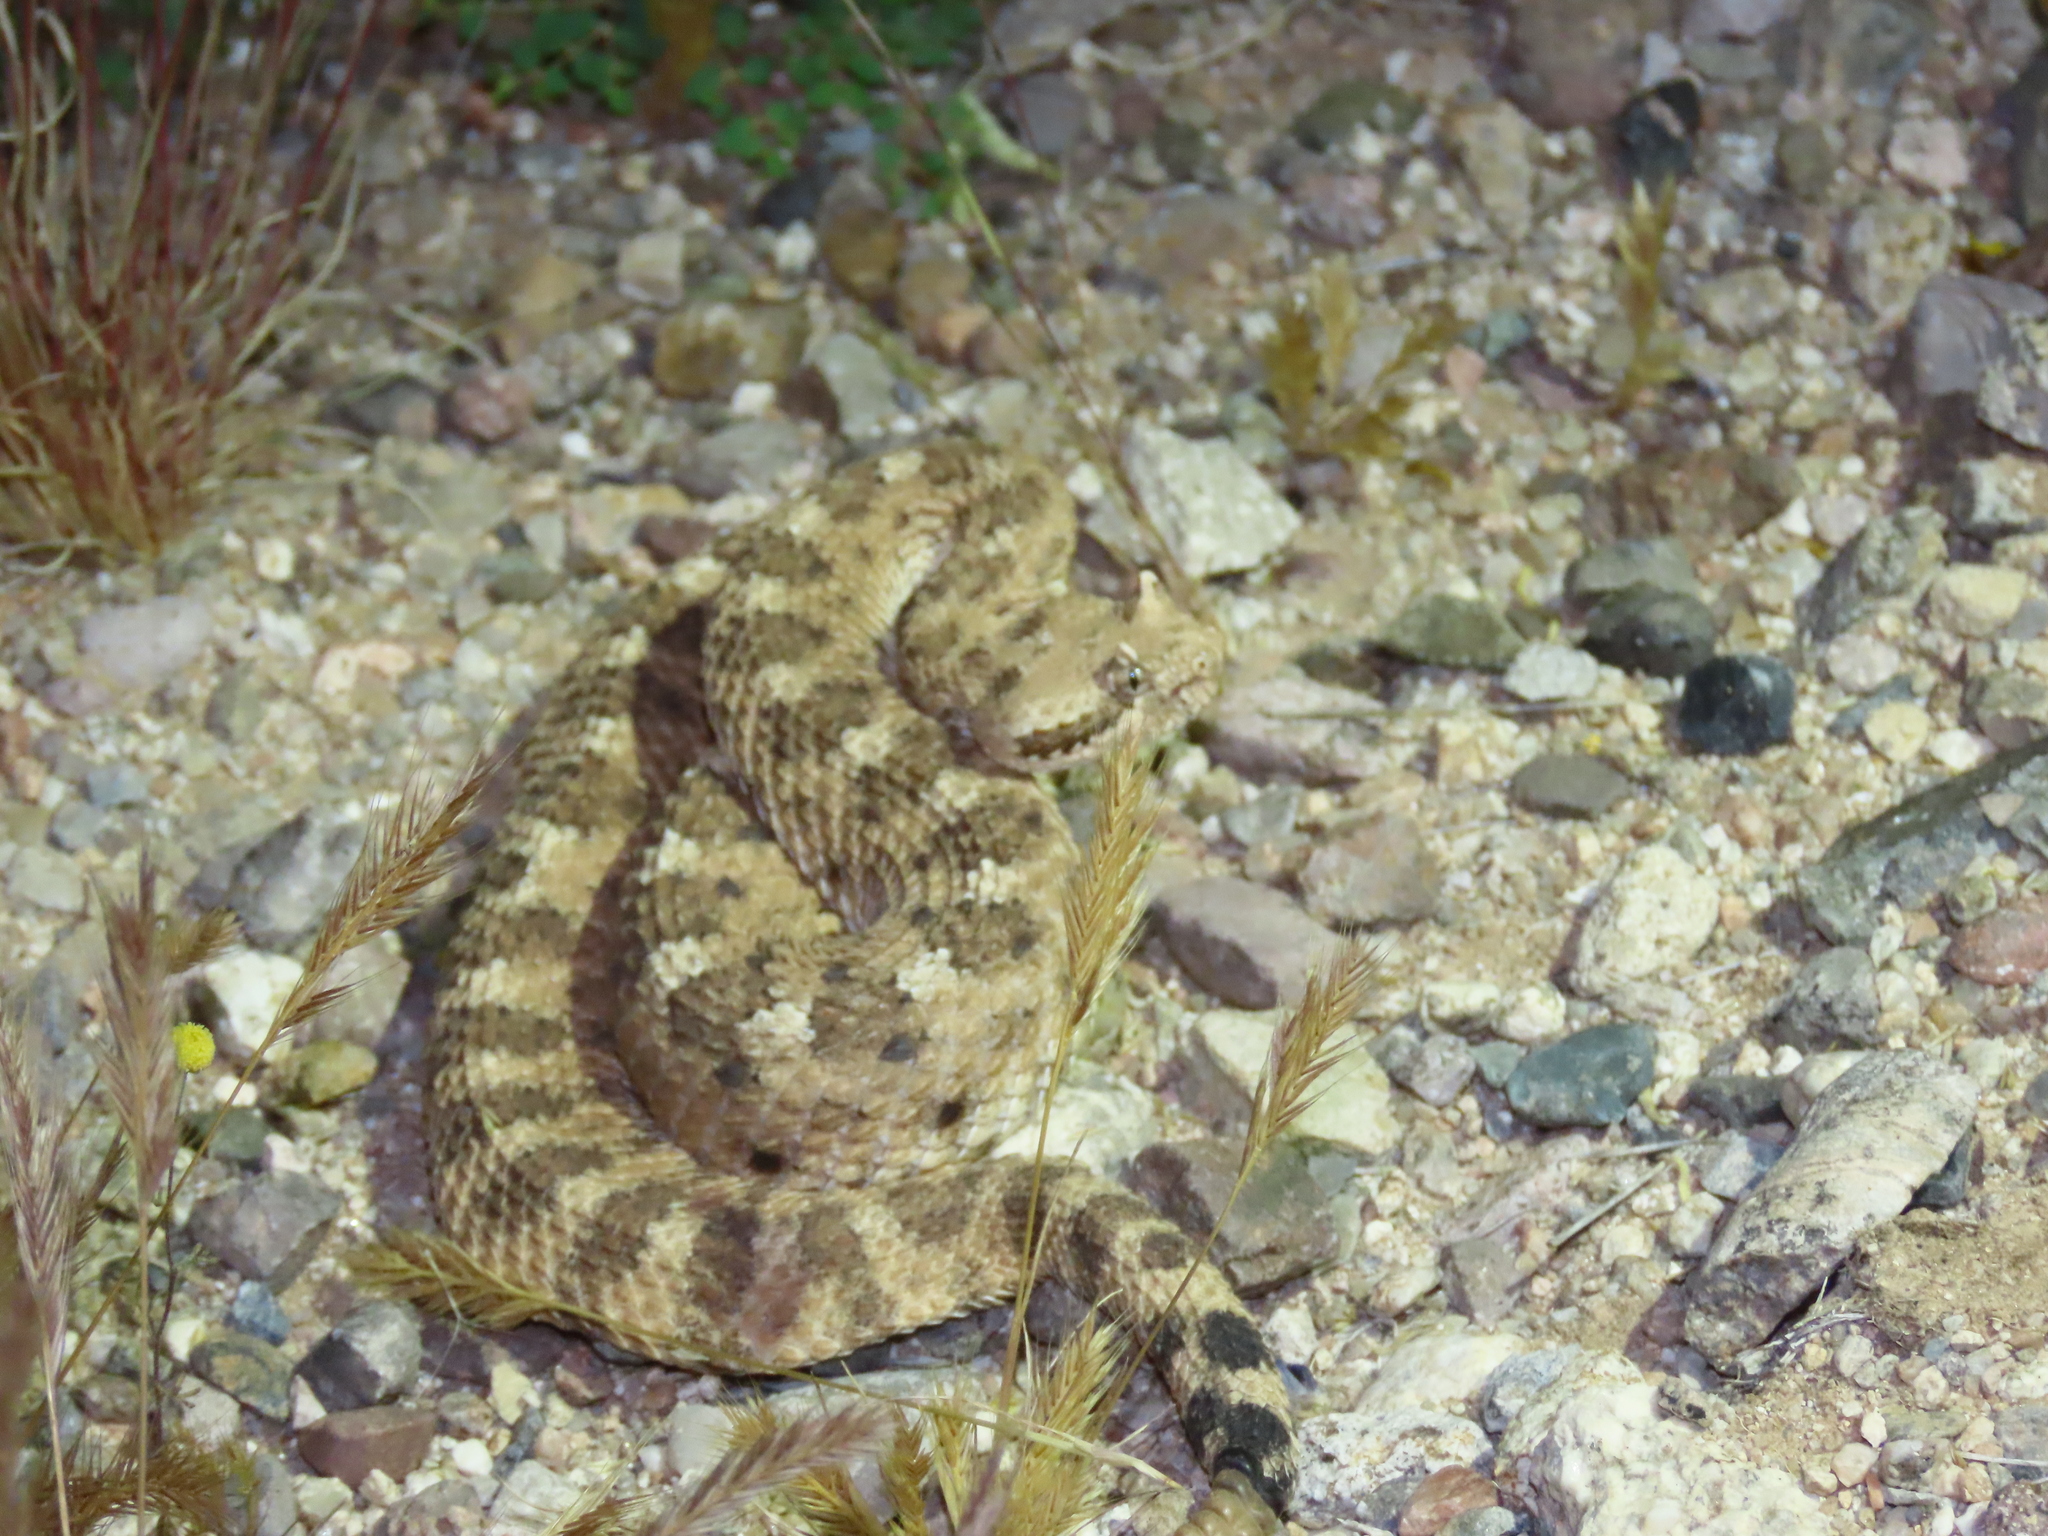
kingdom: Animalia
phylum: Chordata
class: Squamata
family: Viperidae
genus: Crotalus
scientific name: Crotalus cerastes
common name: Sidewinder
